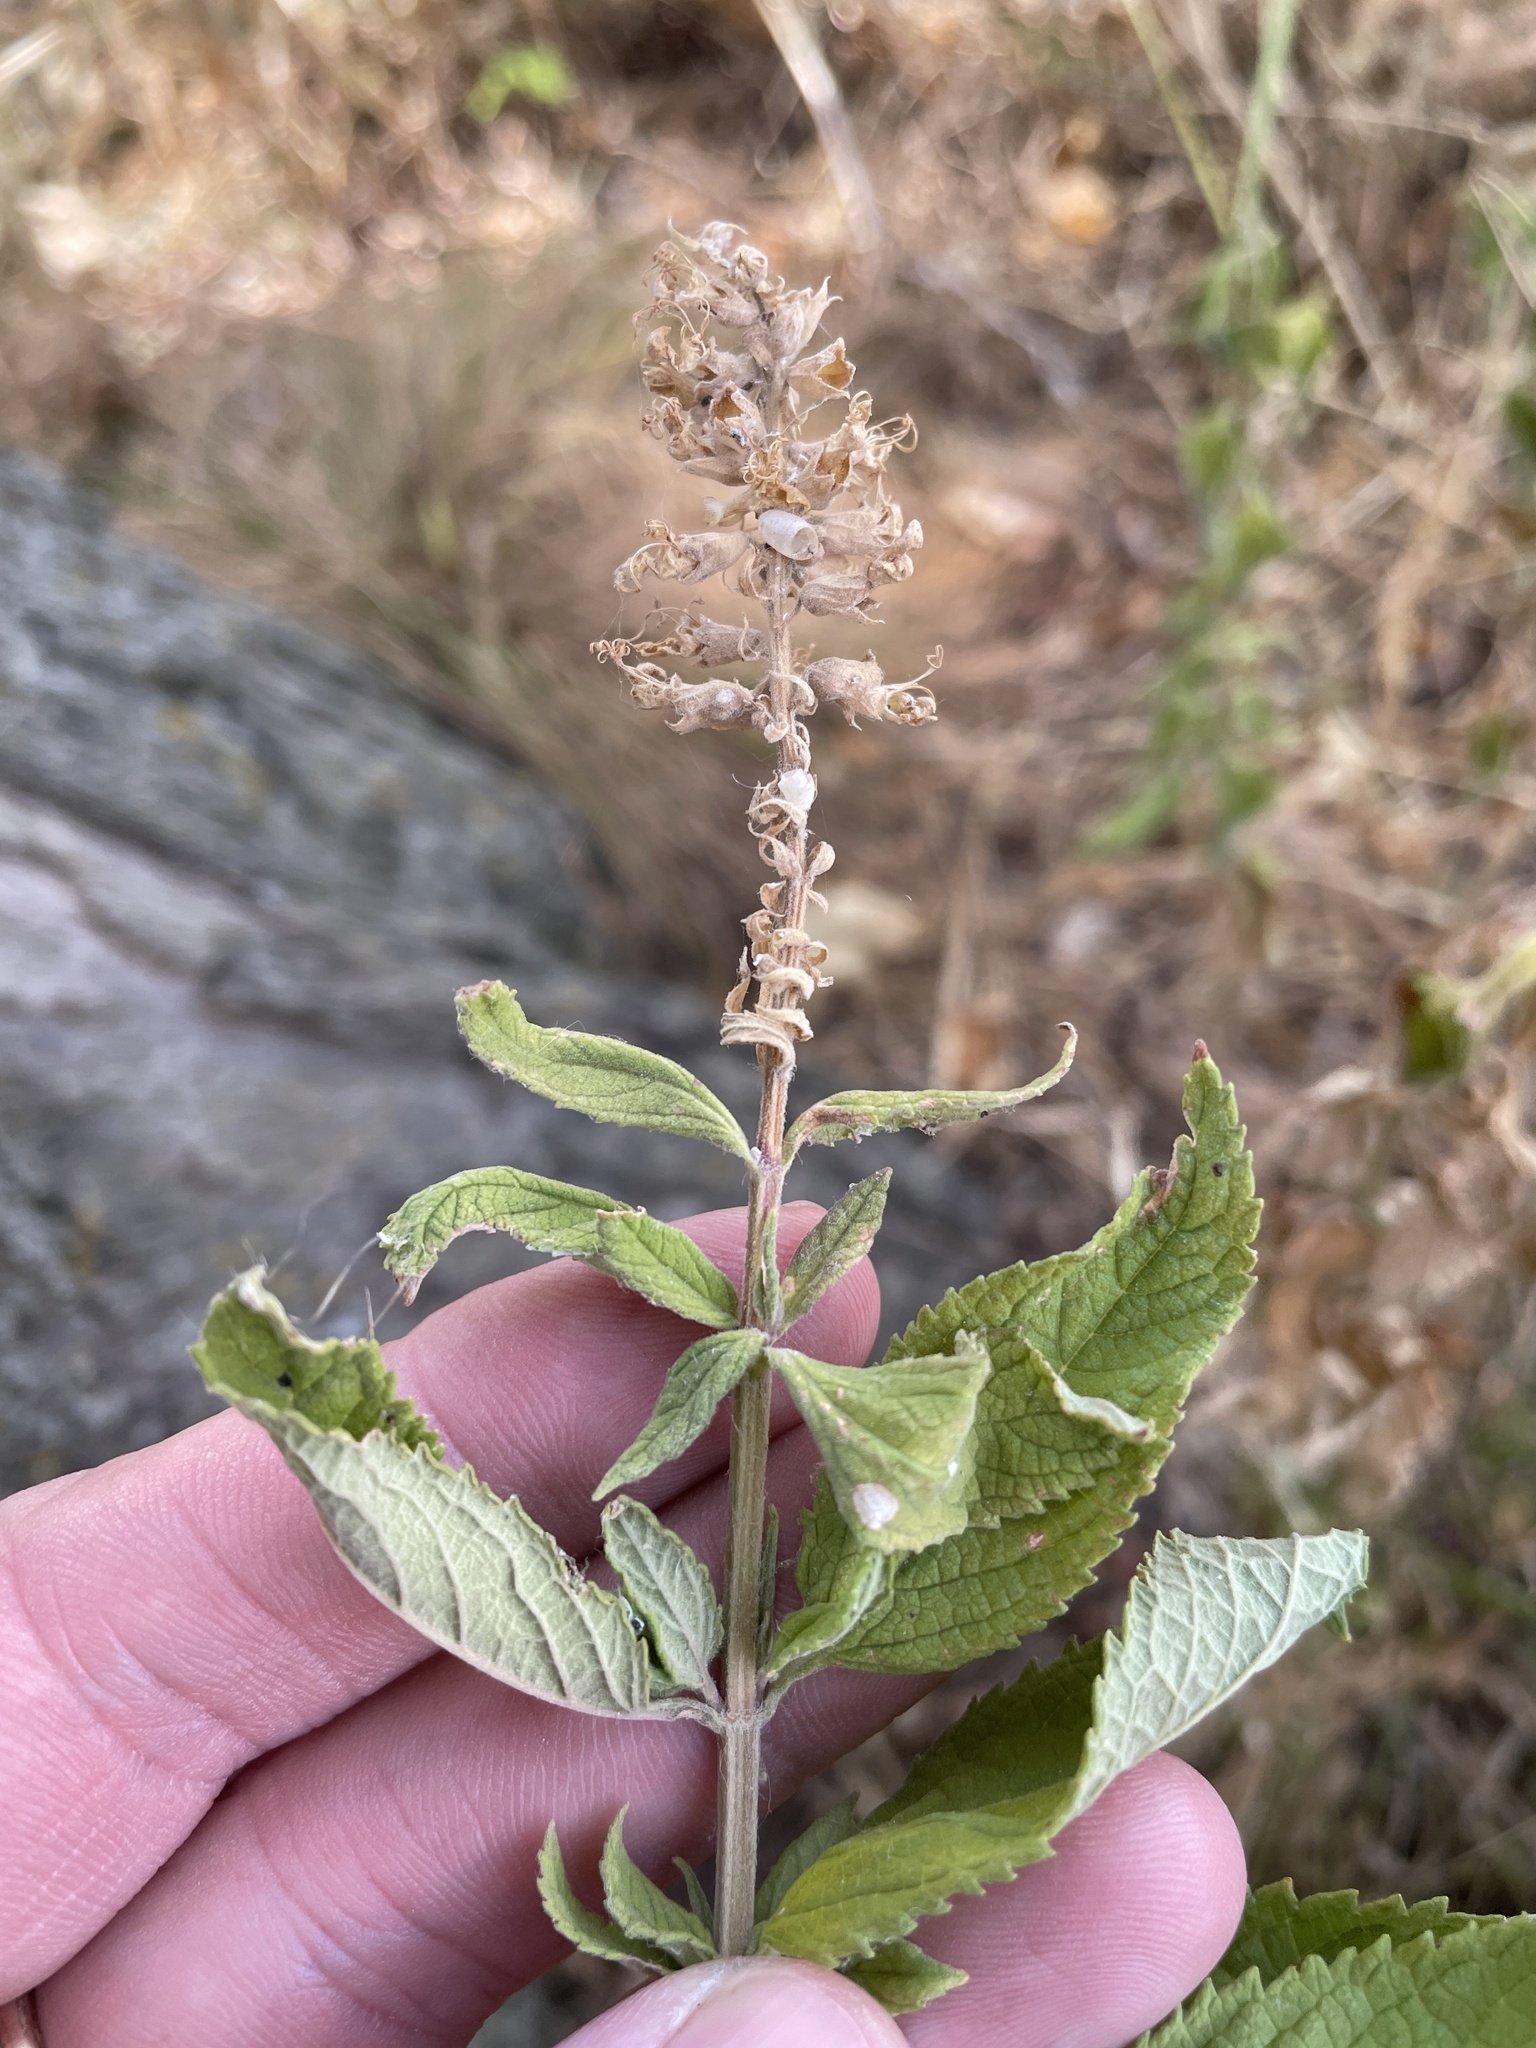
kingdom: Plantae
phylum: Tracheophyta
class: Magnoliopsida
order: Lamiales
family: Lamiaceae
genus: Teucrium
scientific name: Teucrium canadense
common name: American germander
